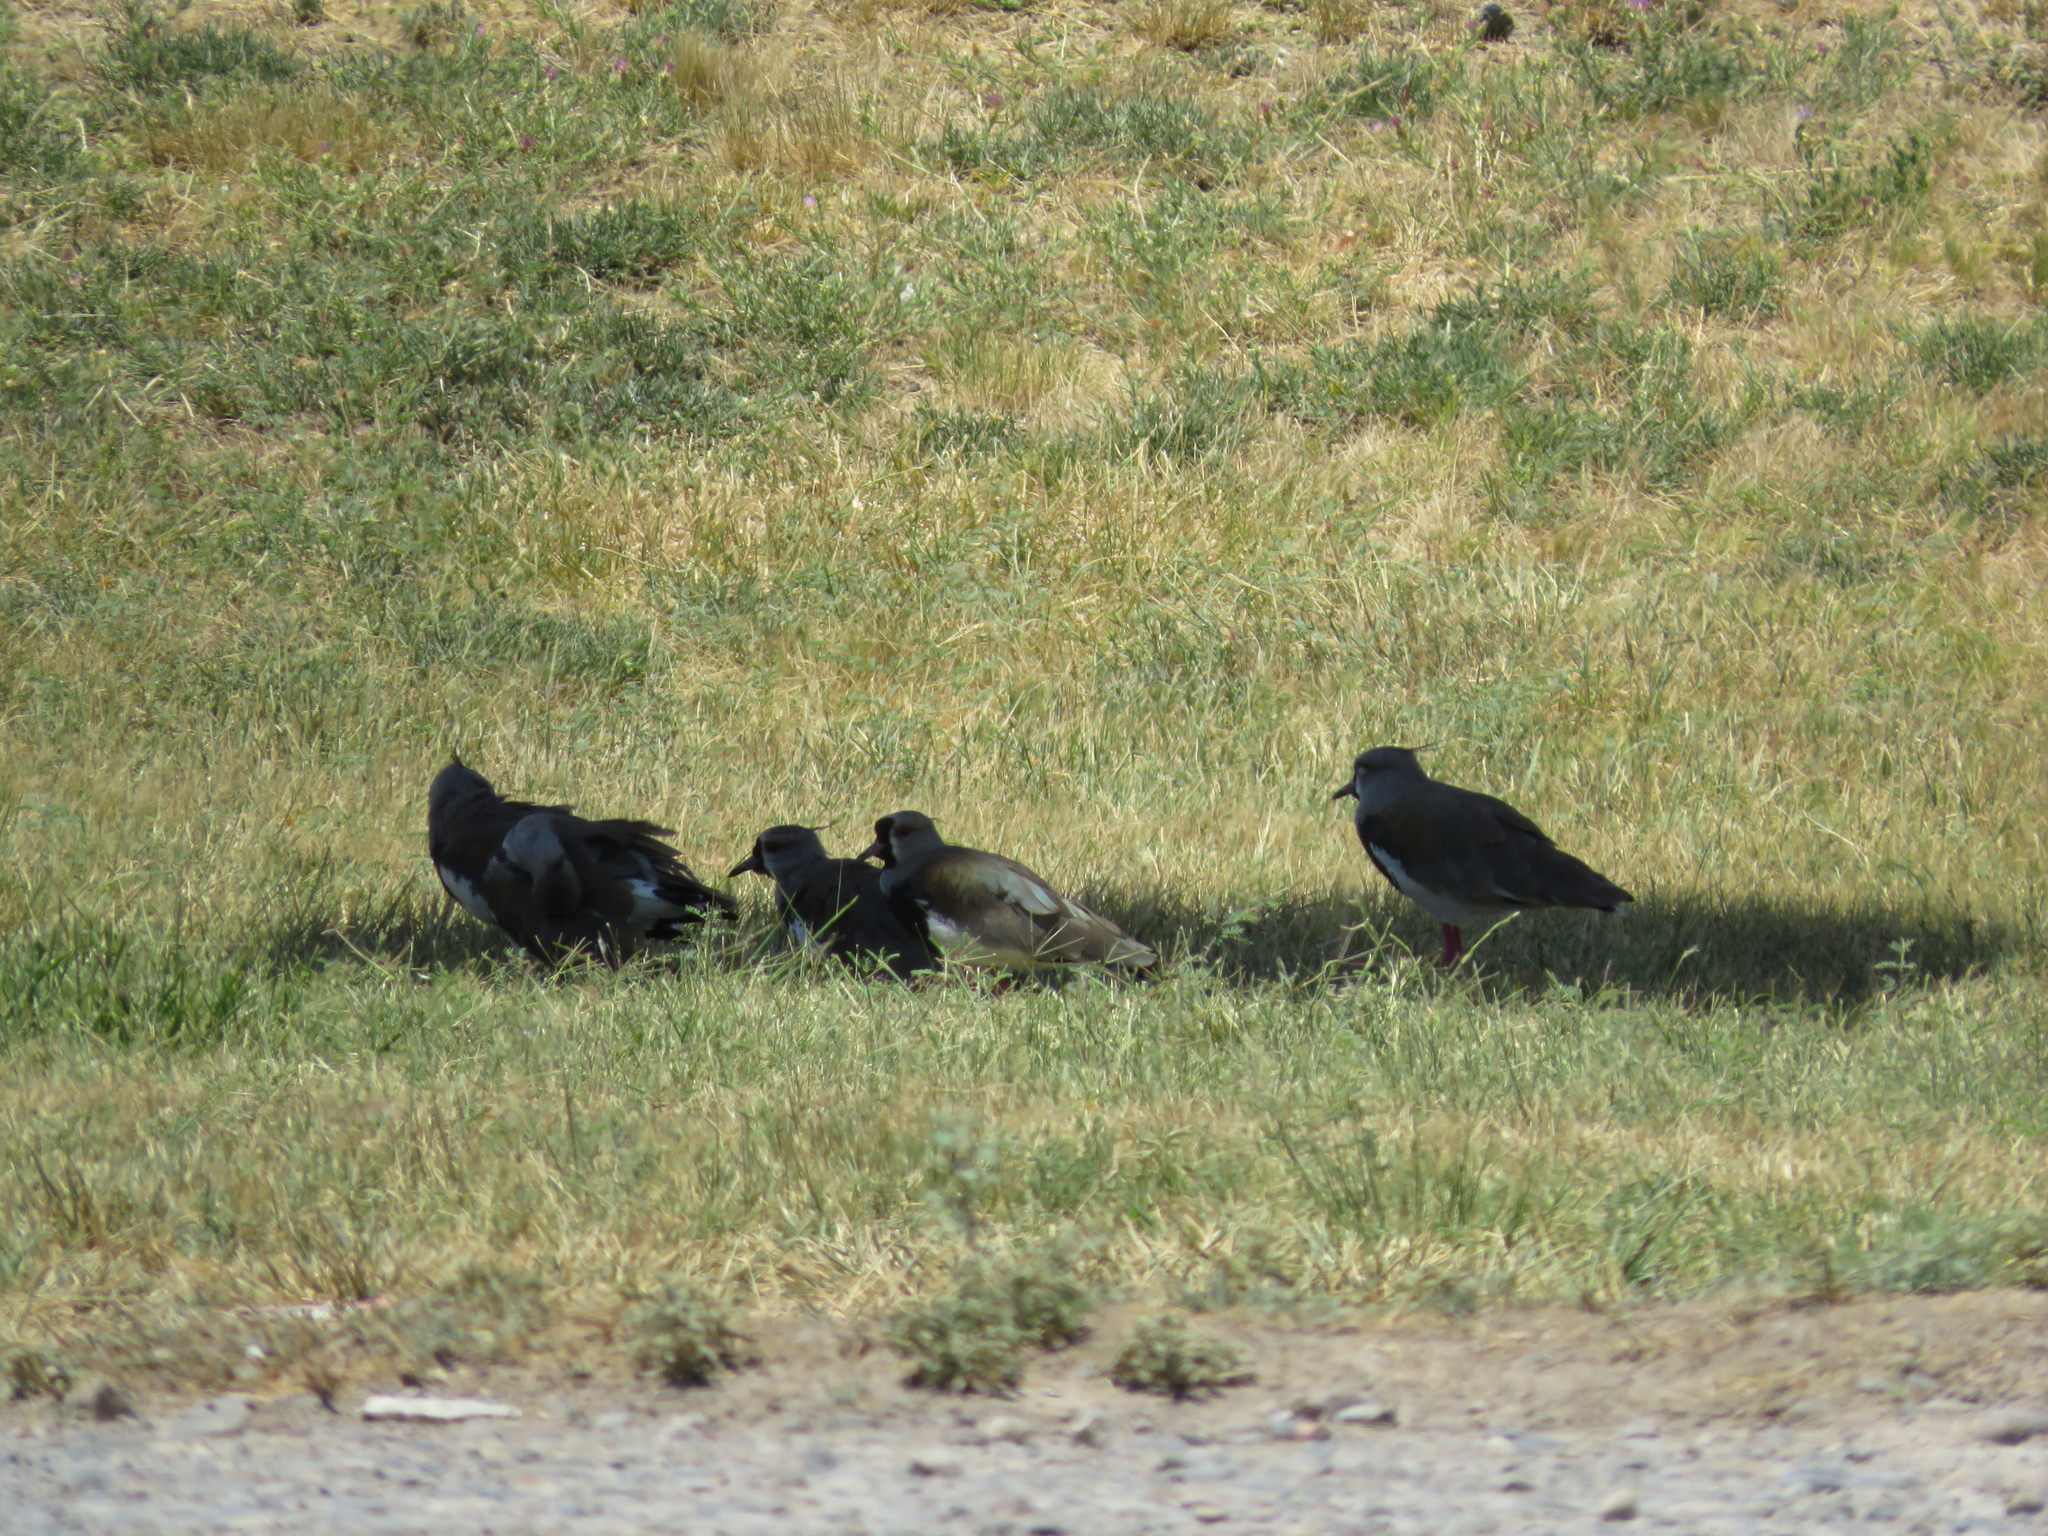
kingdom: Animalia
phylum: Chordata
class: Aves
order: Charadriiformes
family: Charadriidae
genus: Vanellus
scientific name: Vanellus chilensis
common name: Southern lapwing
